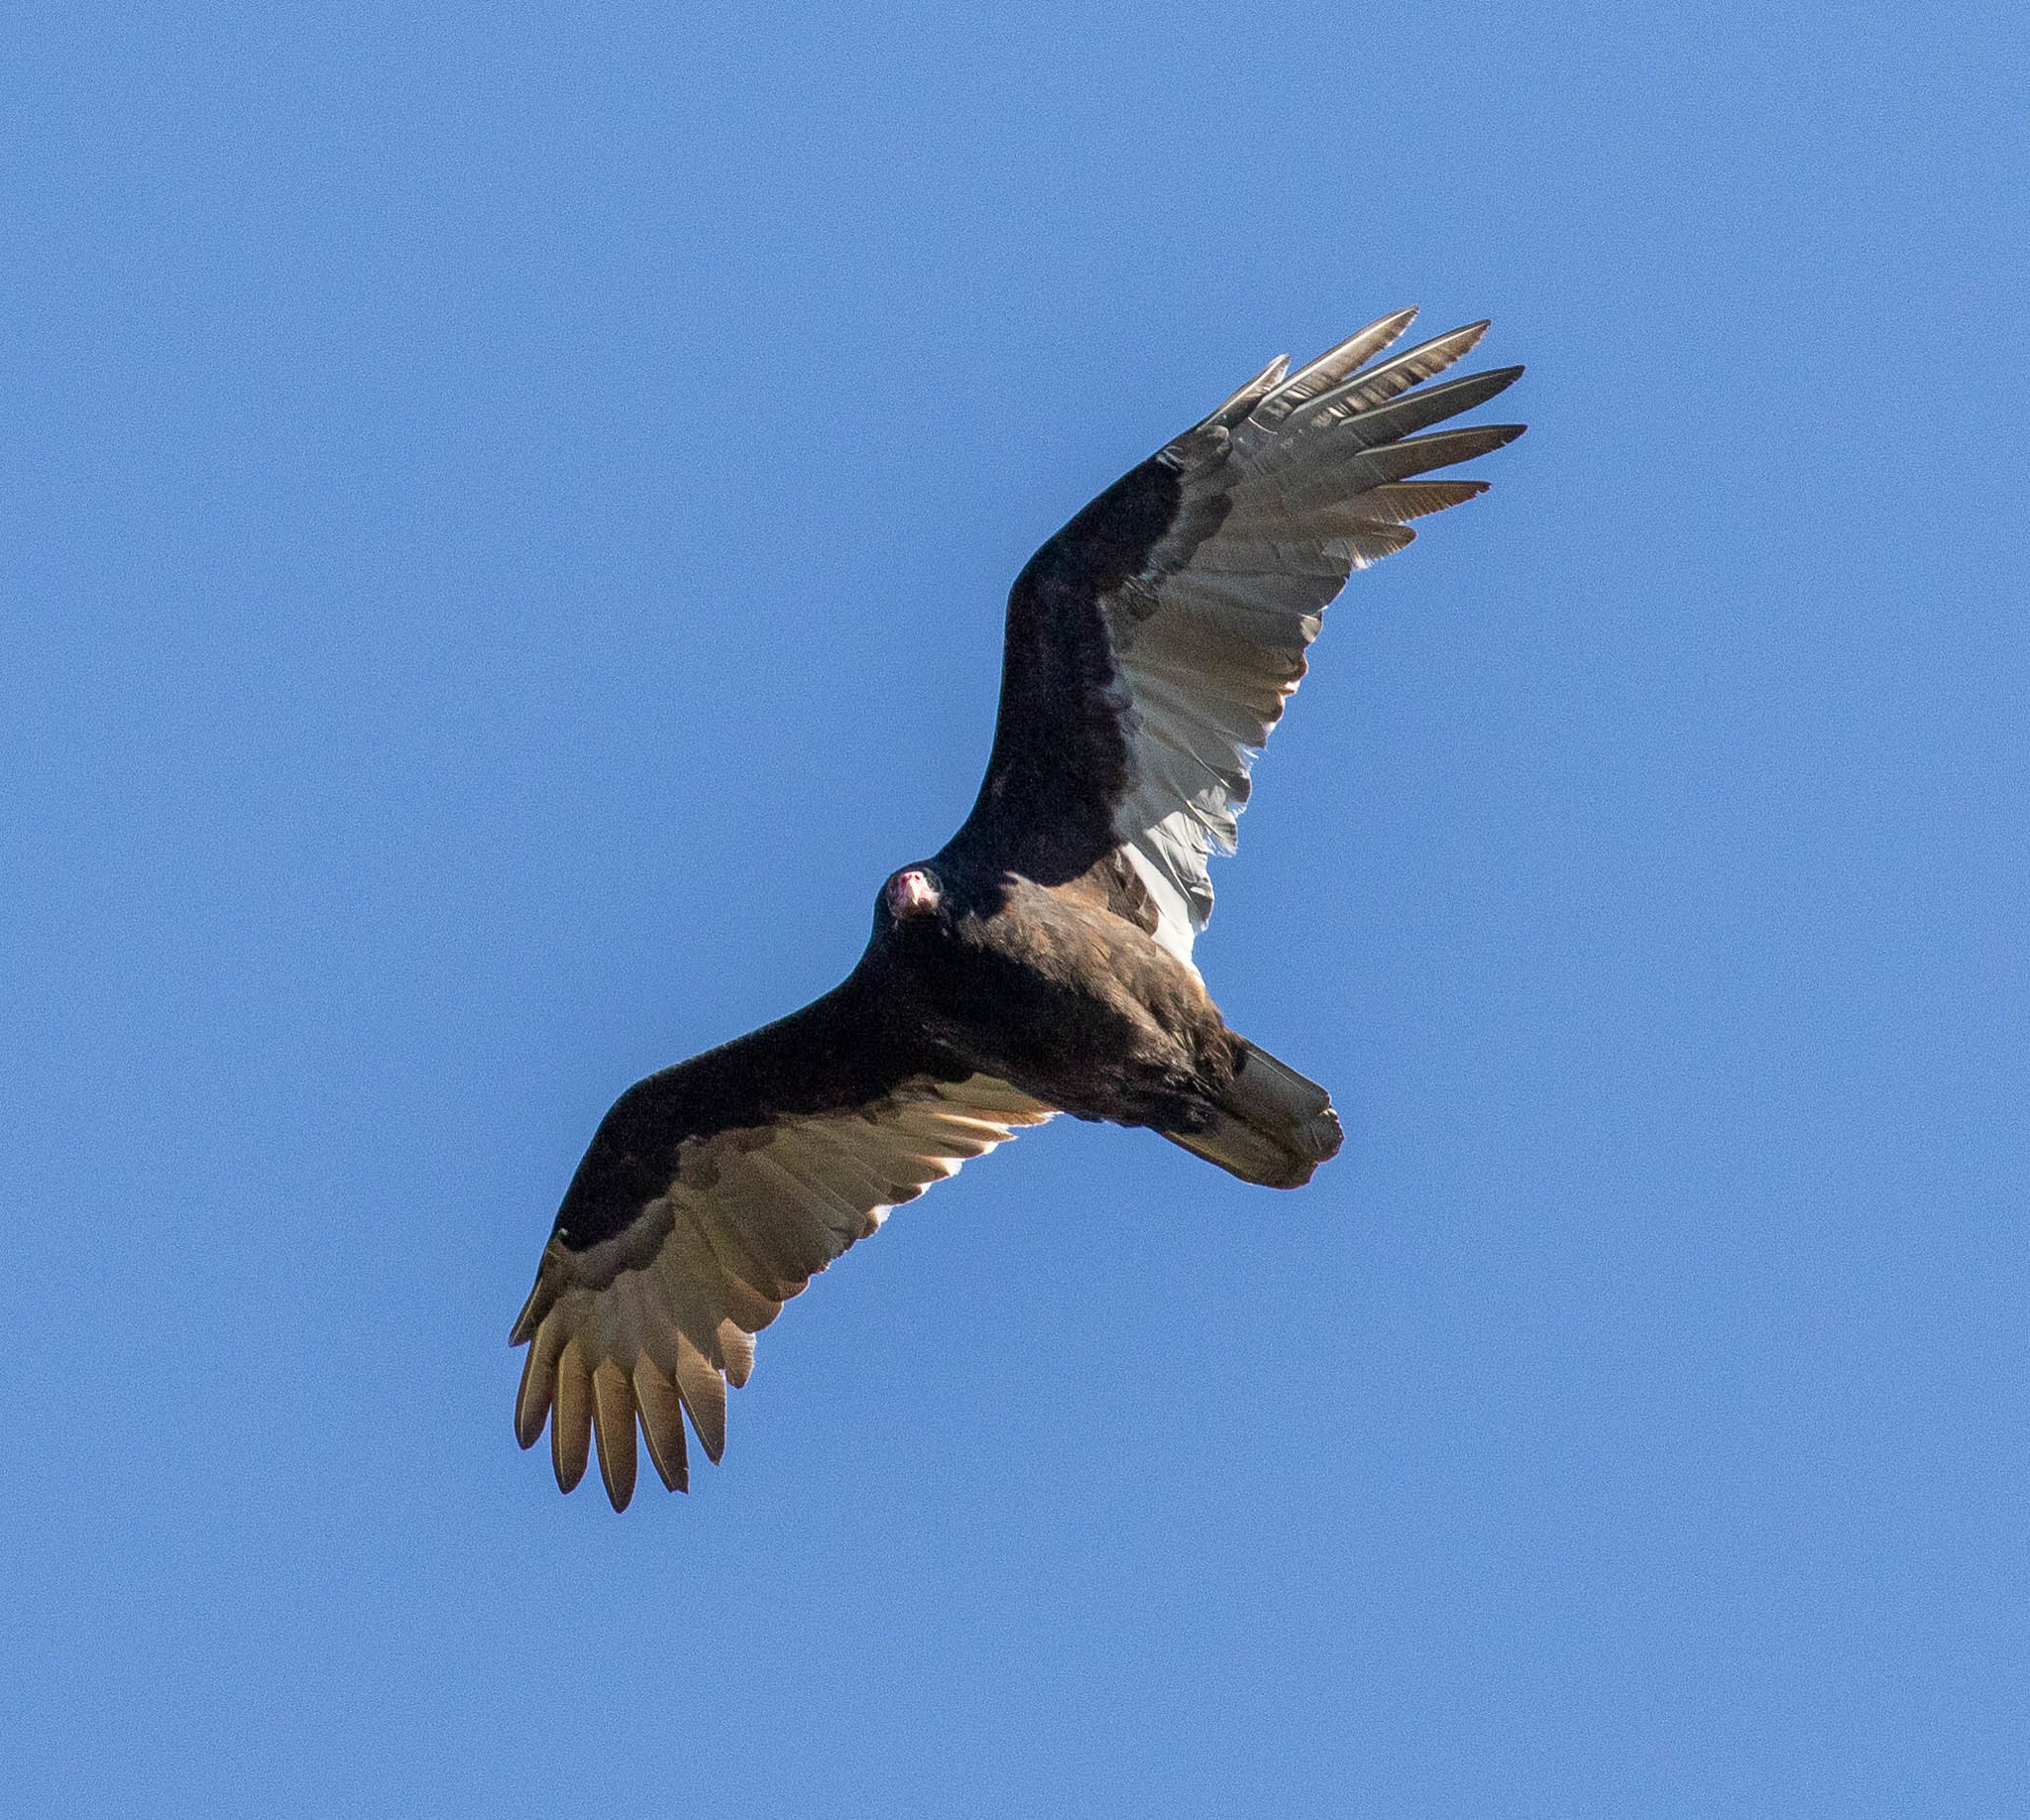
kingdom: Animalia
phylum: Chordata
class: Aves
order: Accipitriformes
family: Cathartidae
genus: Cathartes
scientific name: Cathartes aura
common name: Turkey vulture
